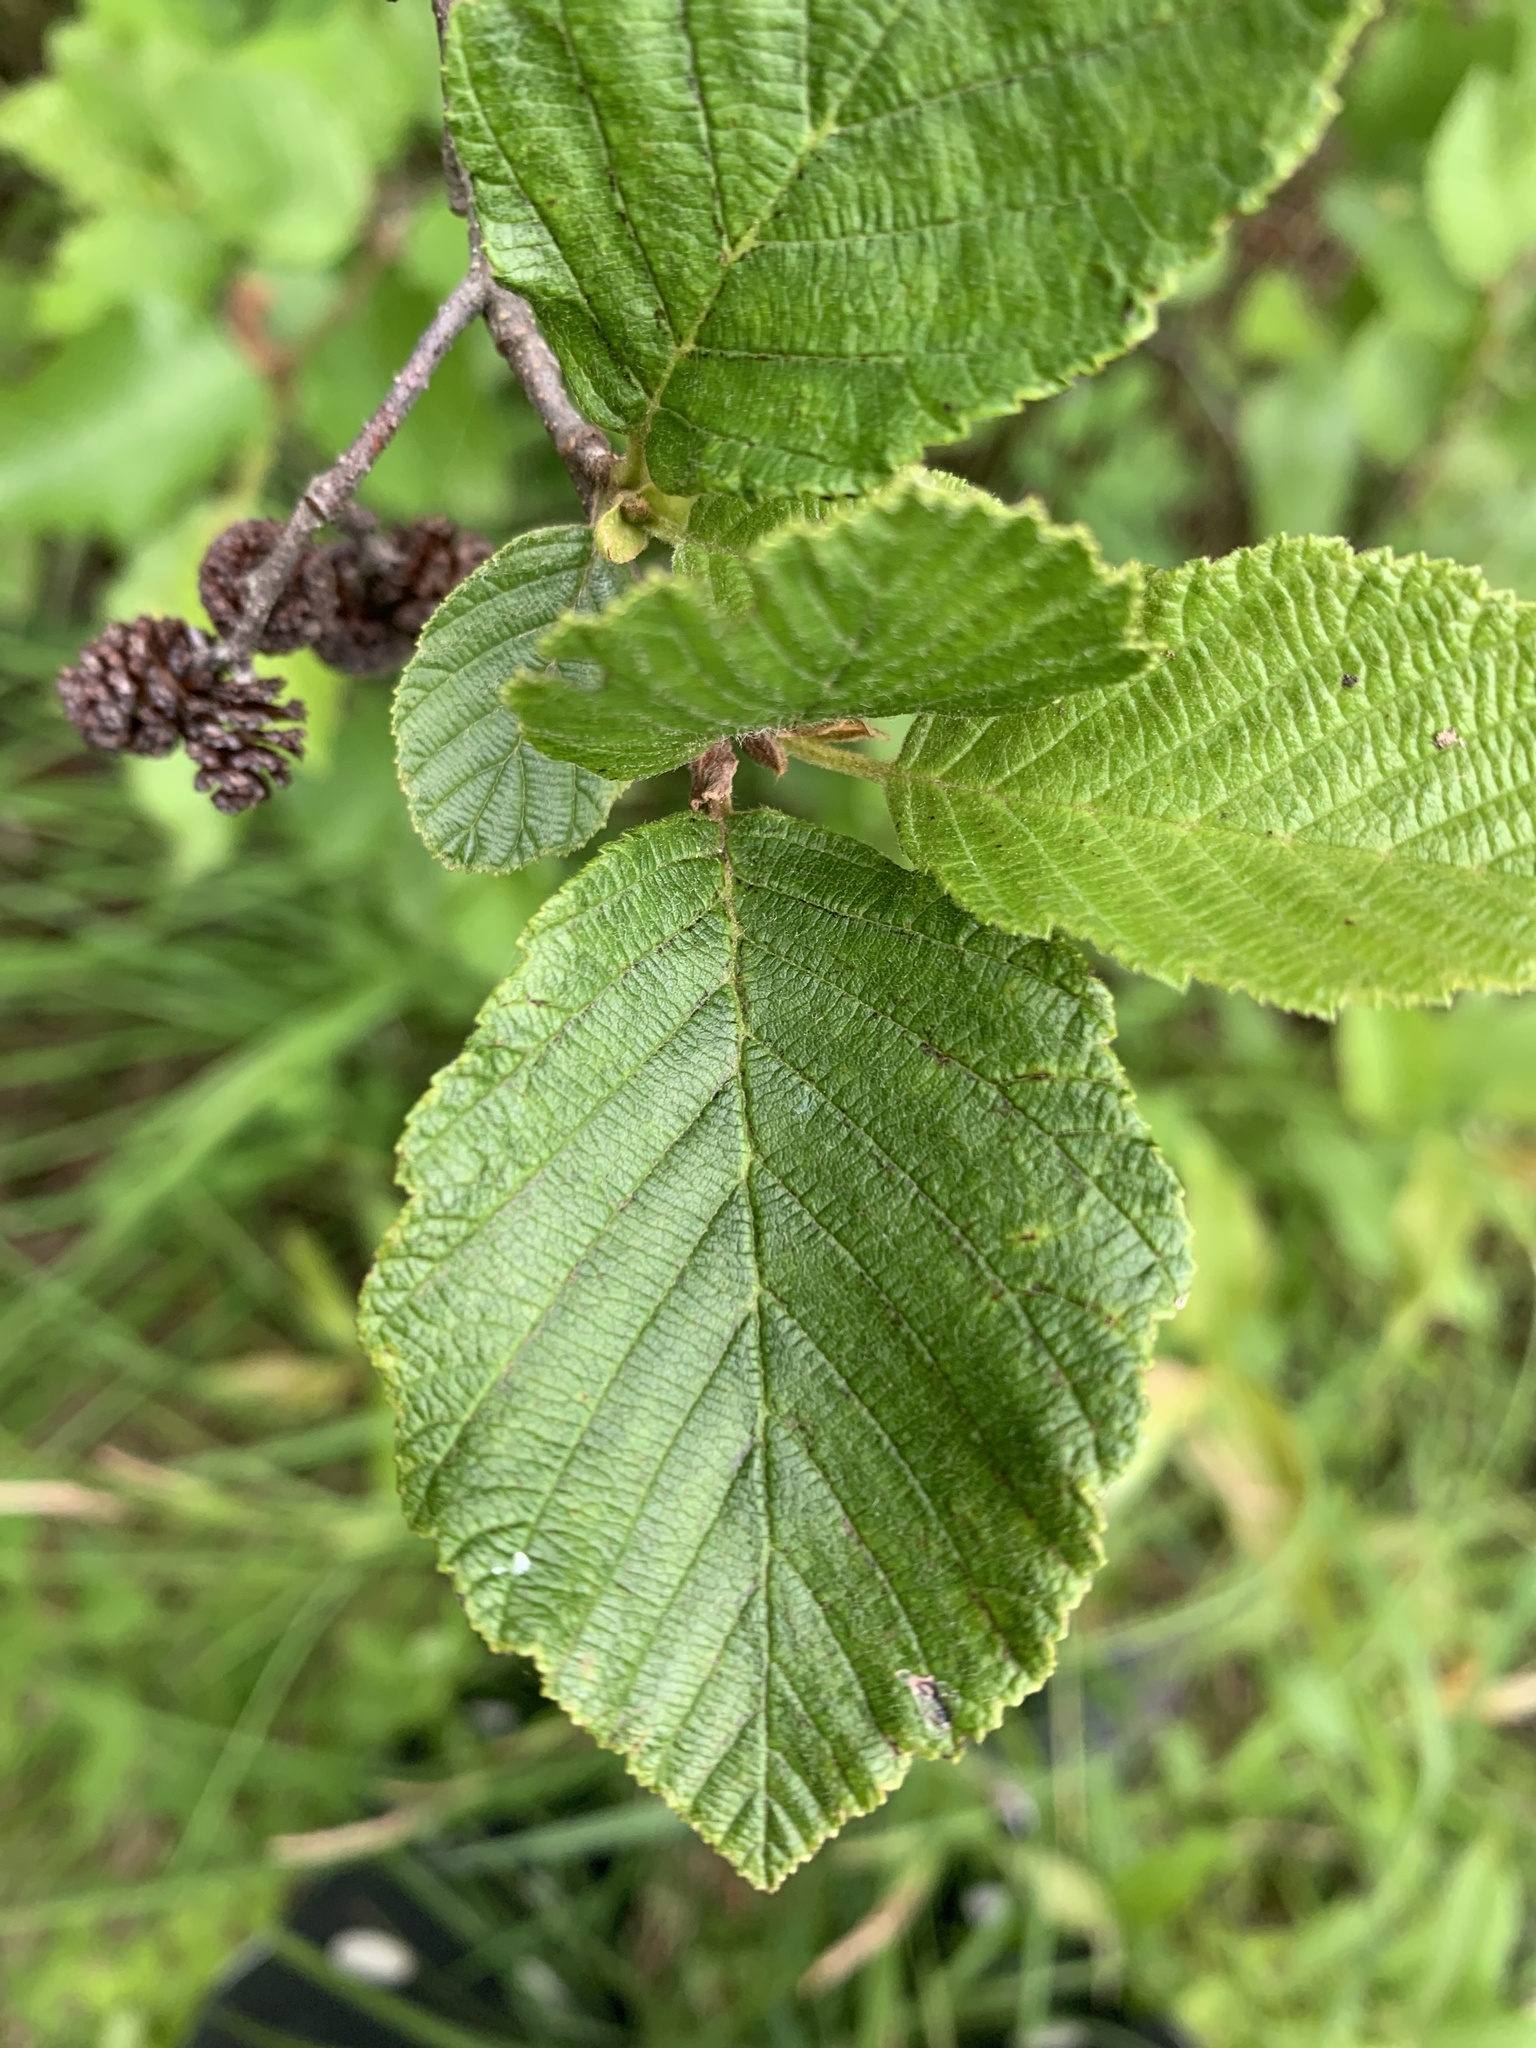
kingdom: Plantae
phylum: Tracheophyta
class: Magnoliopsida
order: Fagales
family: Betulaceae
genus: Alnus
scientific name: Alnus incana
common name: Grey alder
